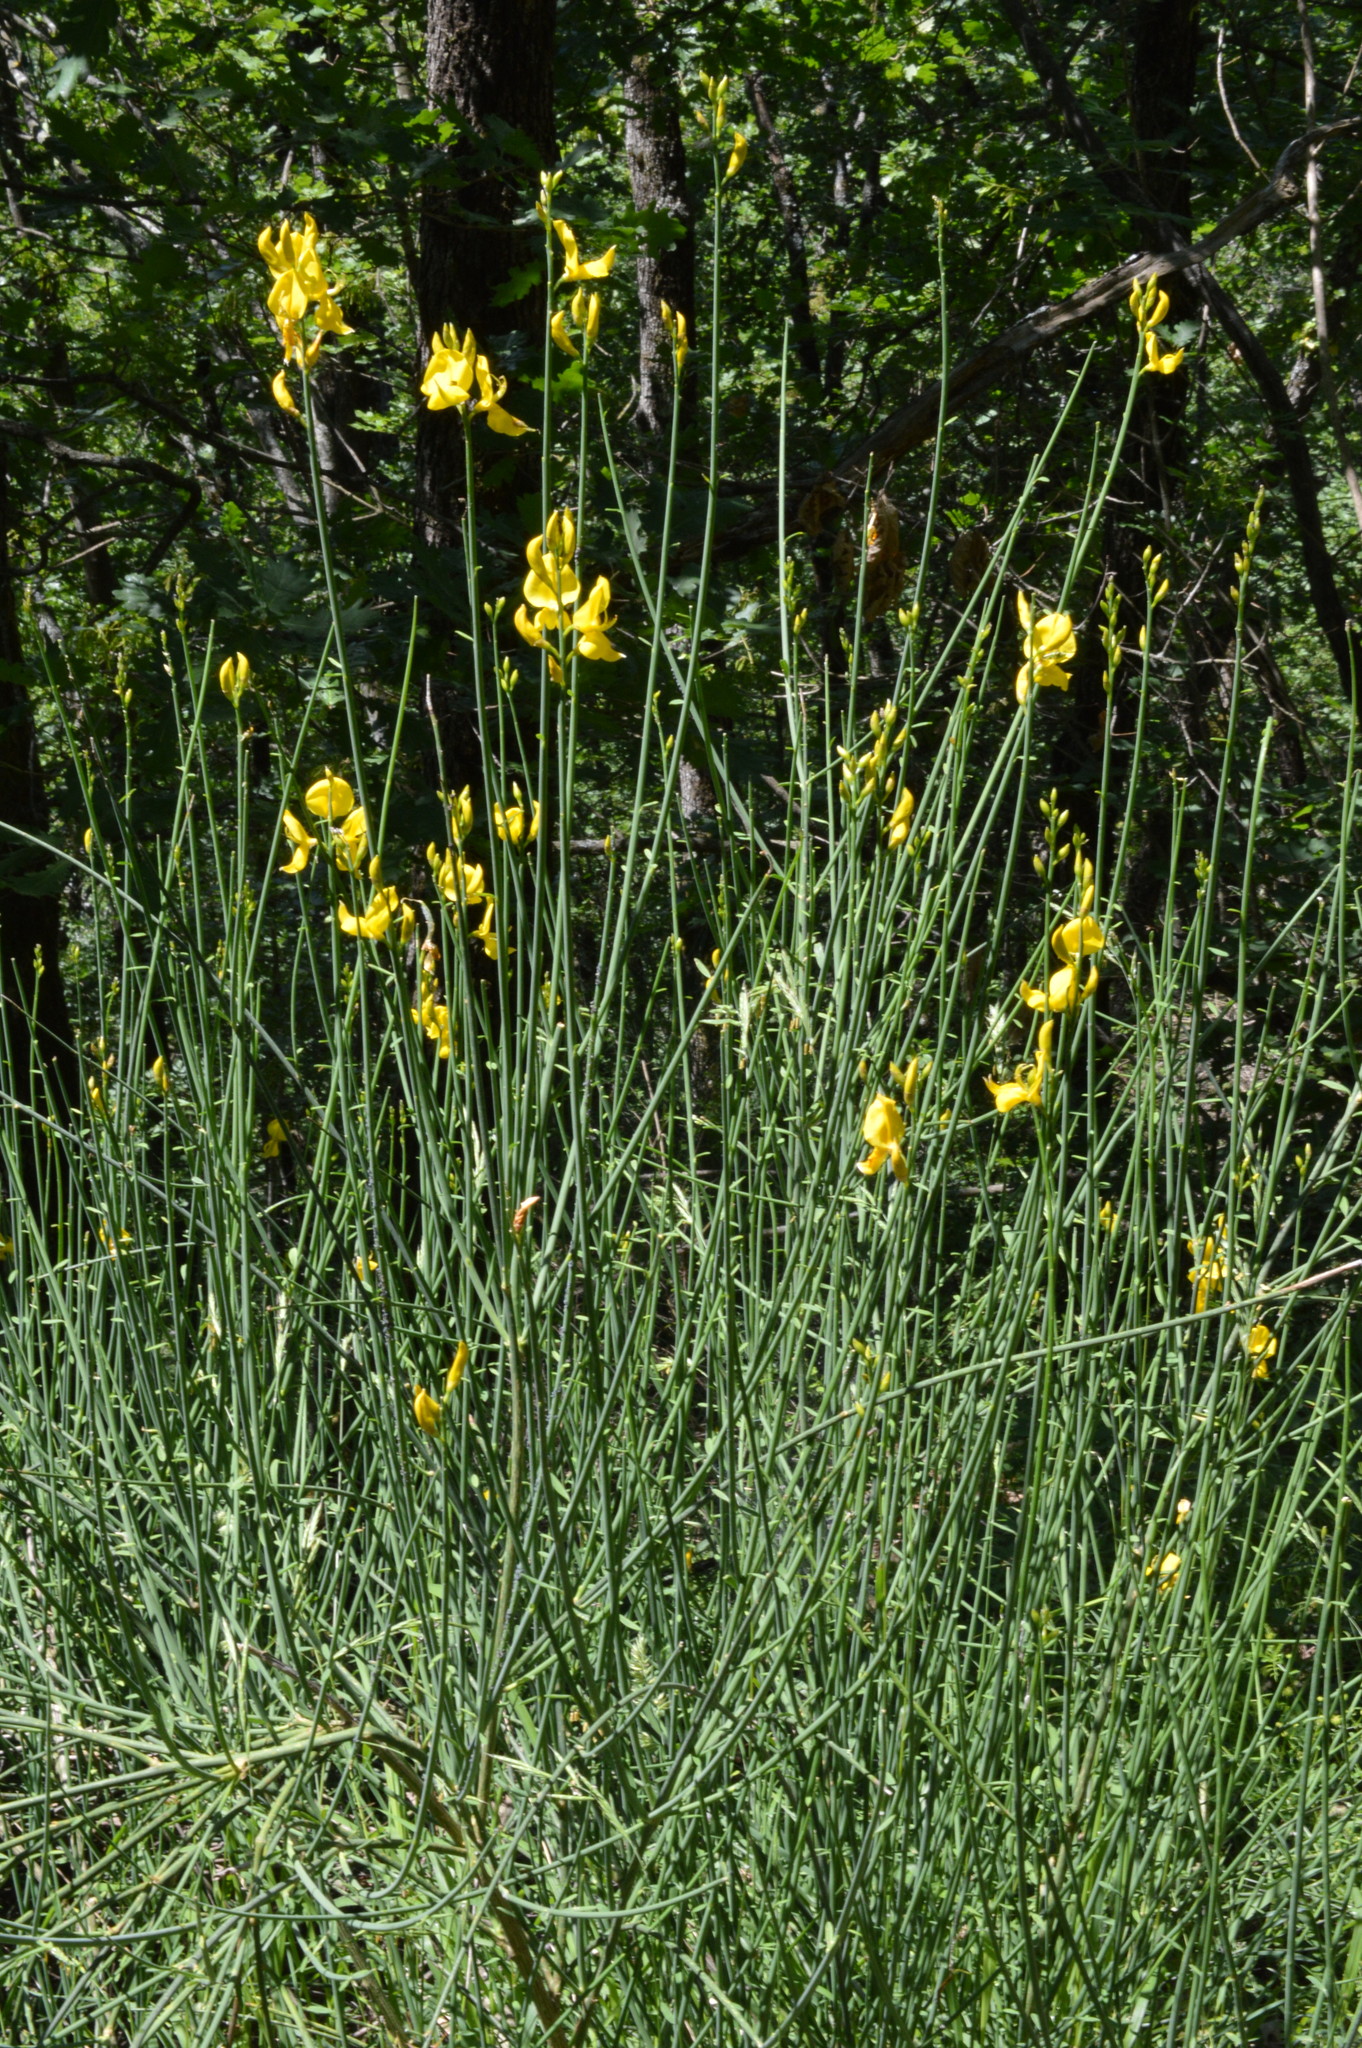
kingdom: Plantae
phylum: Tracheophyta
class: Magnoliopsida
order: Fabales
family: Fabaceae
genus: Spartium
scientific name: Spartium junceum
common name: Spanish broom
